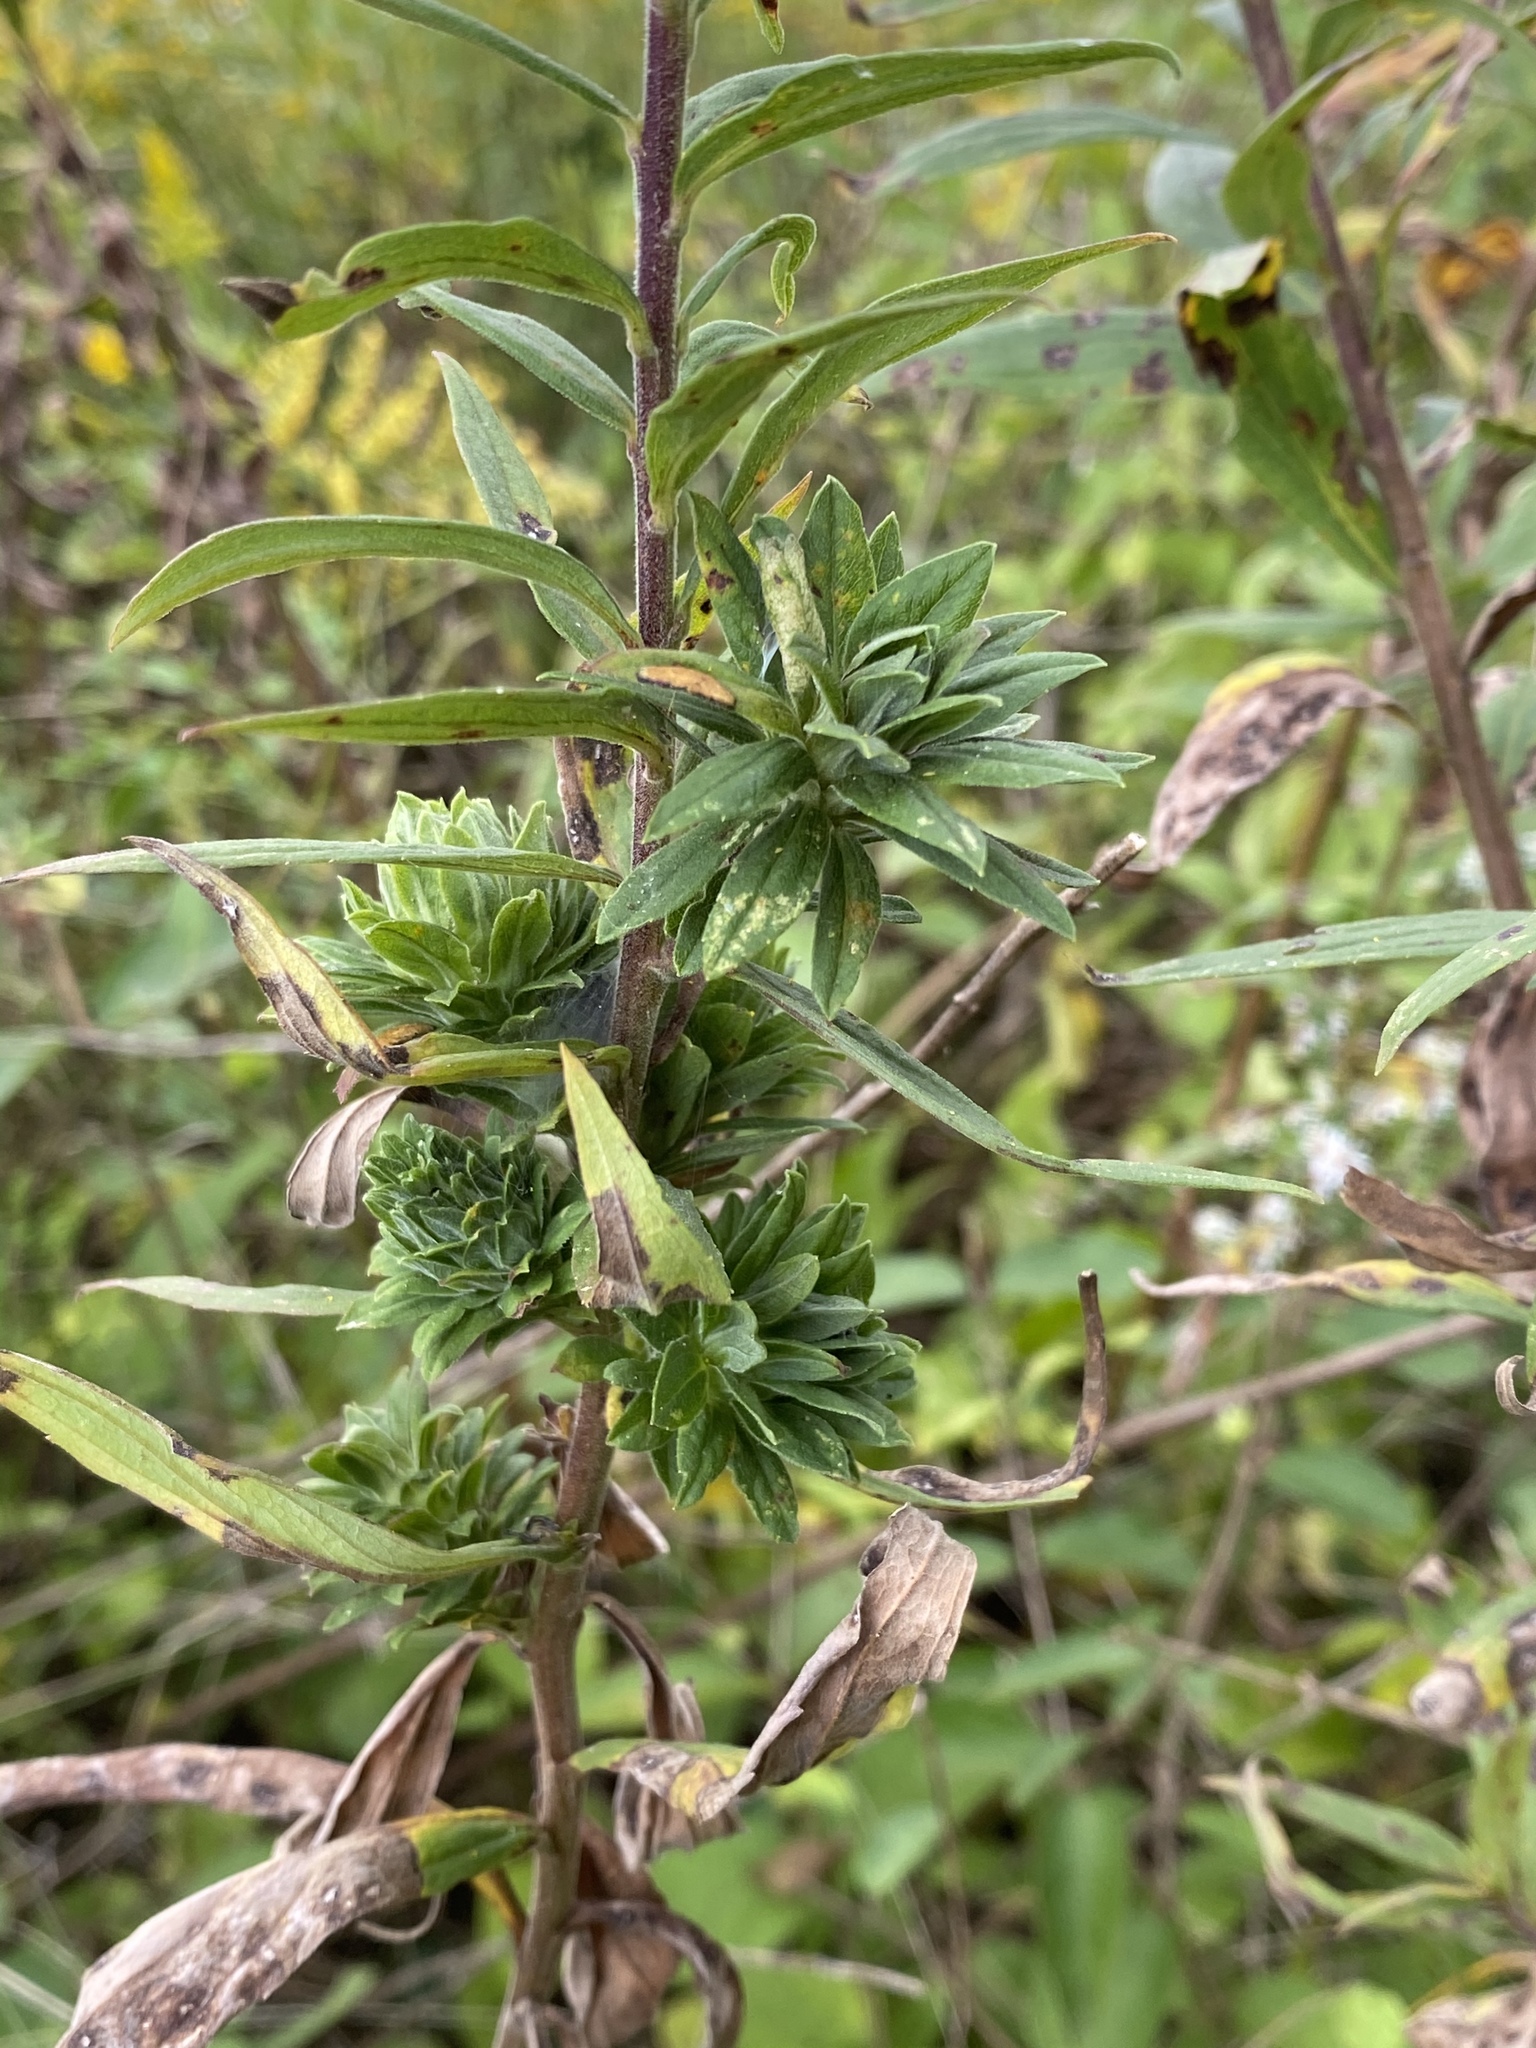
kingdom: Animalia
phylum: Arthropoda
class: Insecta
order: Diptera
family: Tephritidae
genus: Procecidochares
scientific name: Procecidochares atra
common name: Goldenrod brussels sprout gall fly
